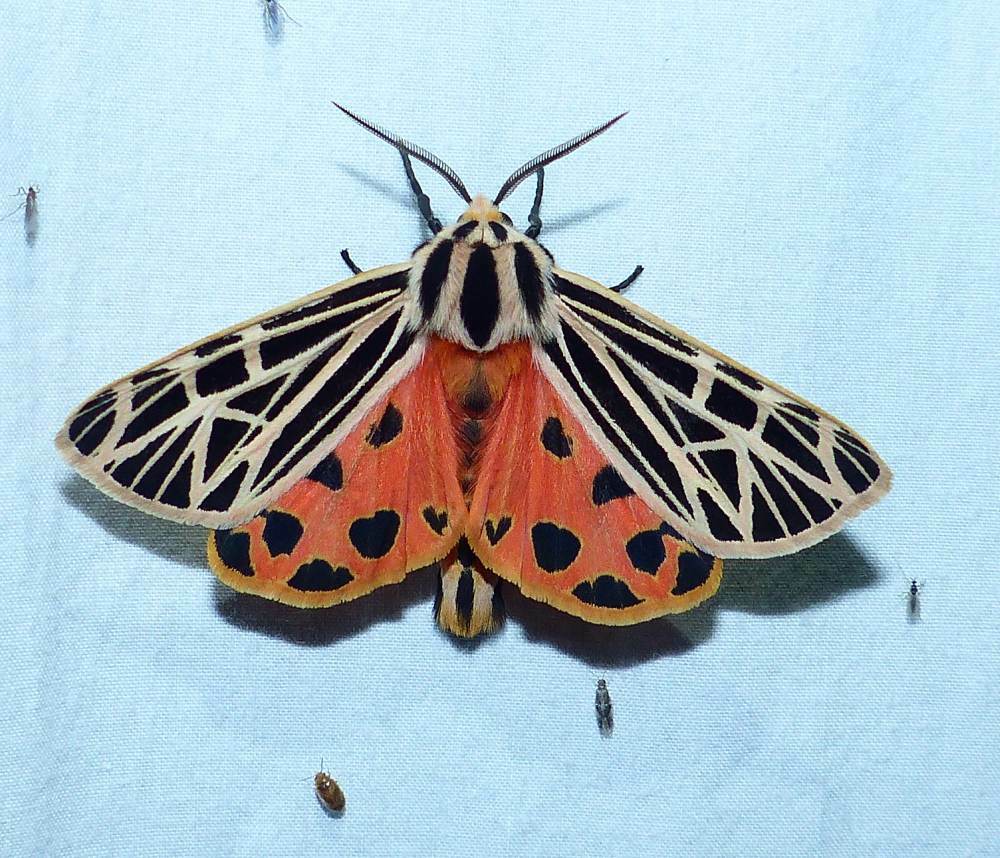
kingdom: Animalia
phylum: Arthropoda
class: Insecta
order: Lepidoptera
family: Erebidae
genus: Grammia
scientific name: Grammia virgo
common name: Virgin tiger moth
